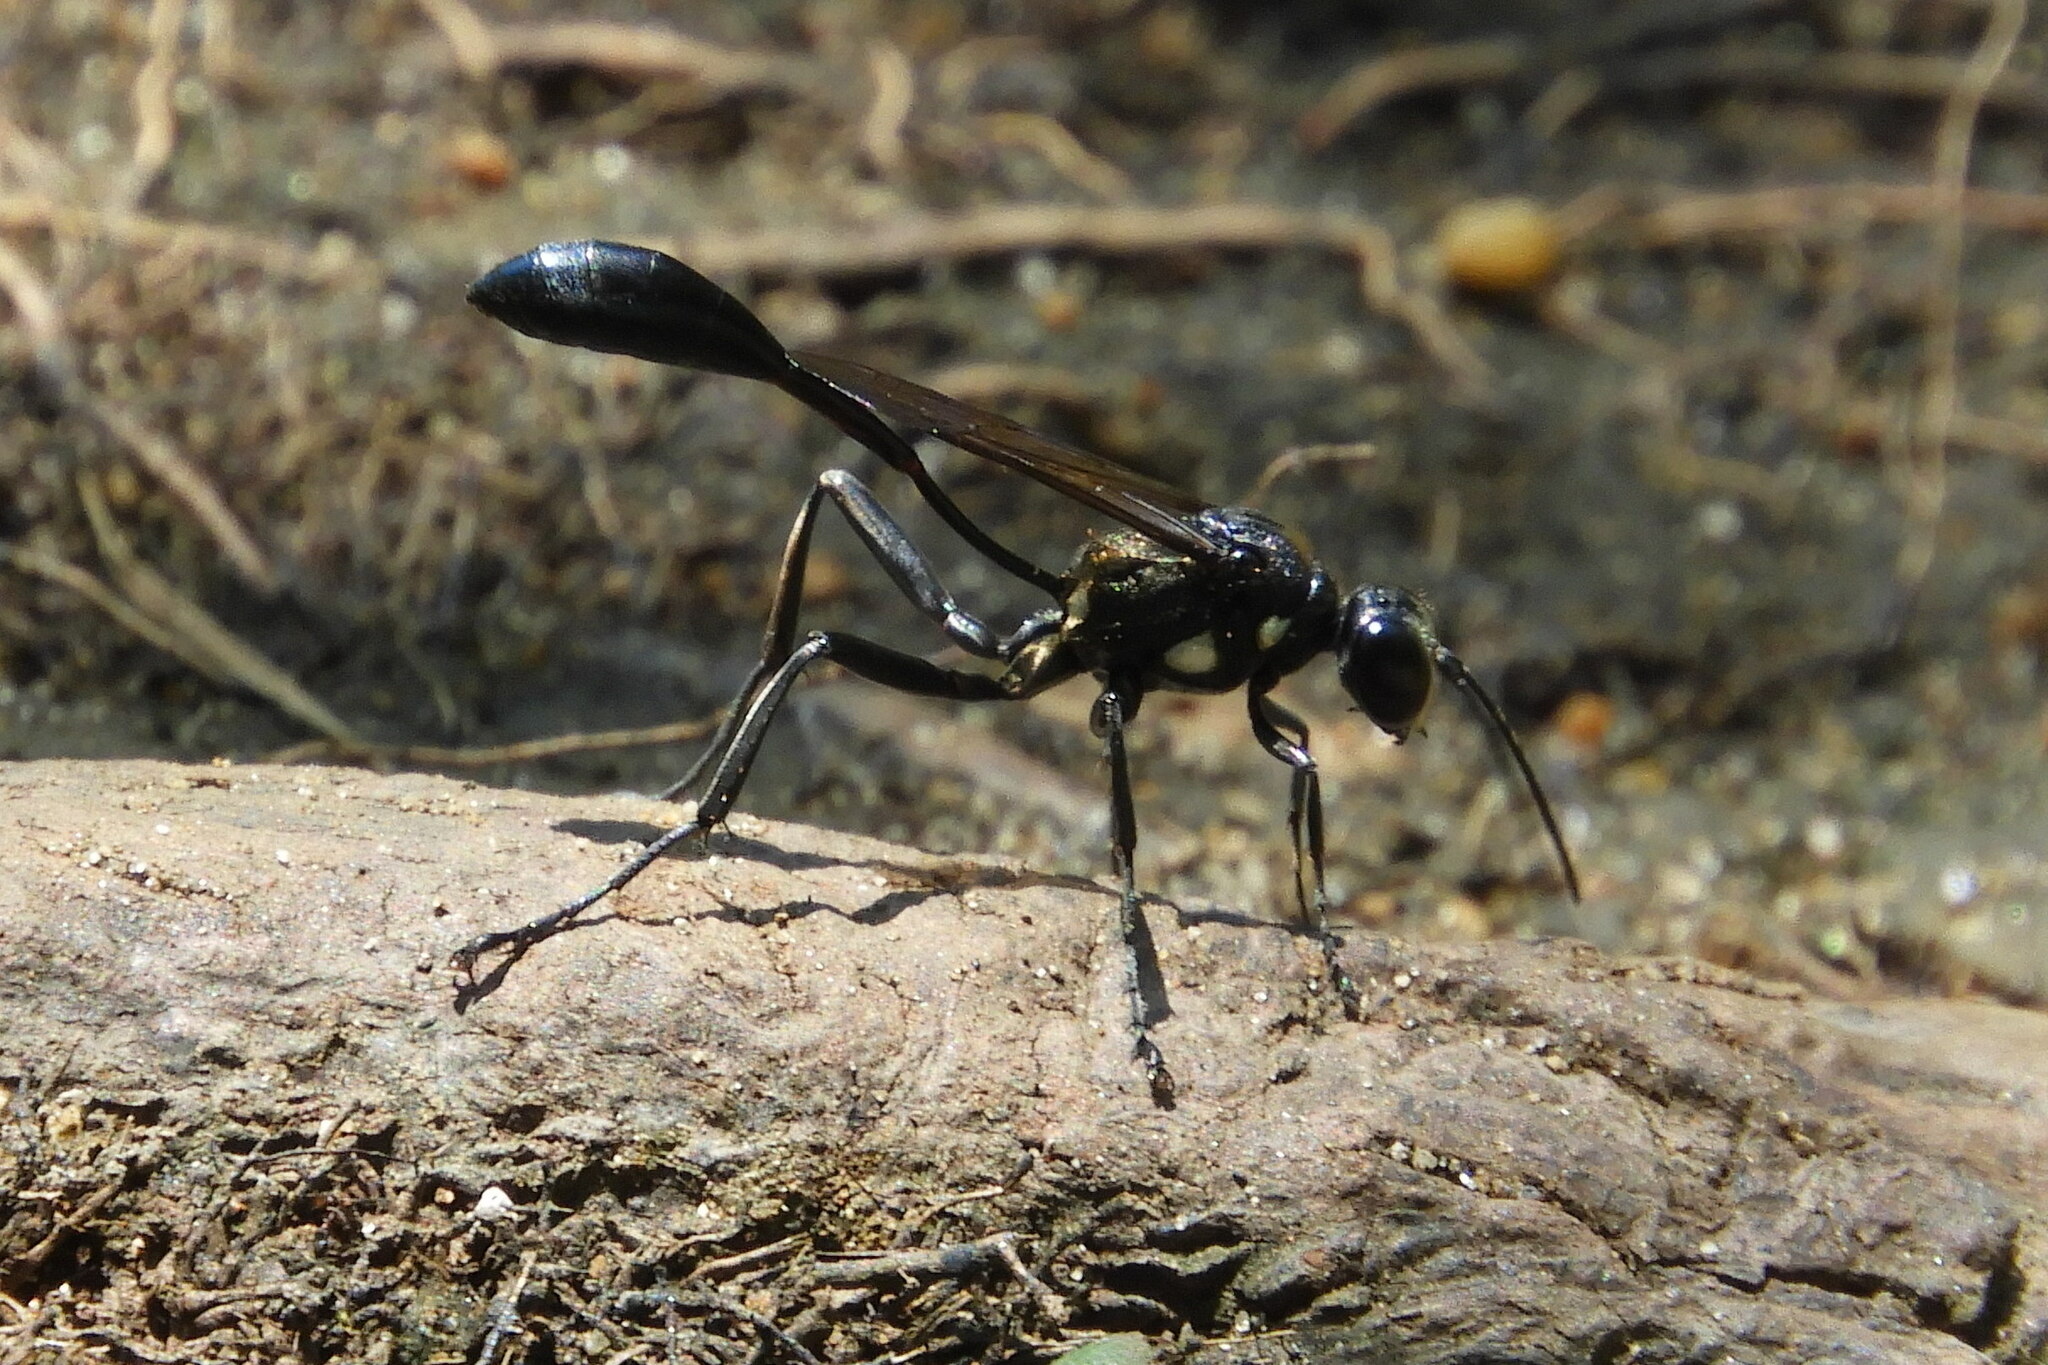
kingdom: Animalia
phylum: Arthropoda
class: Insecta
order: Hymenoptera
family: Sphecidae
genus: Eremnophila
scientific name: Eremnophila aureonotata
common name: Gold-marked thread-waisted wasp
